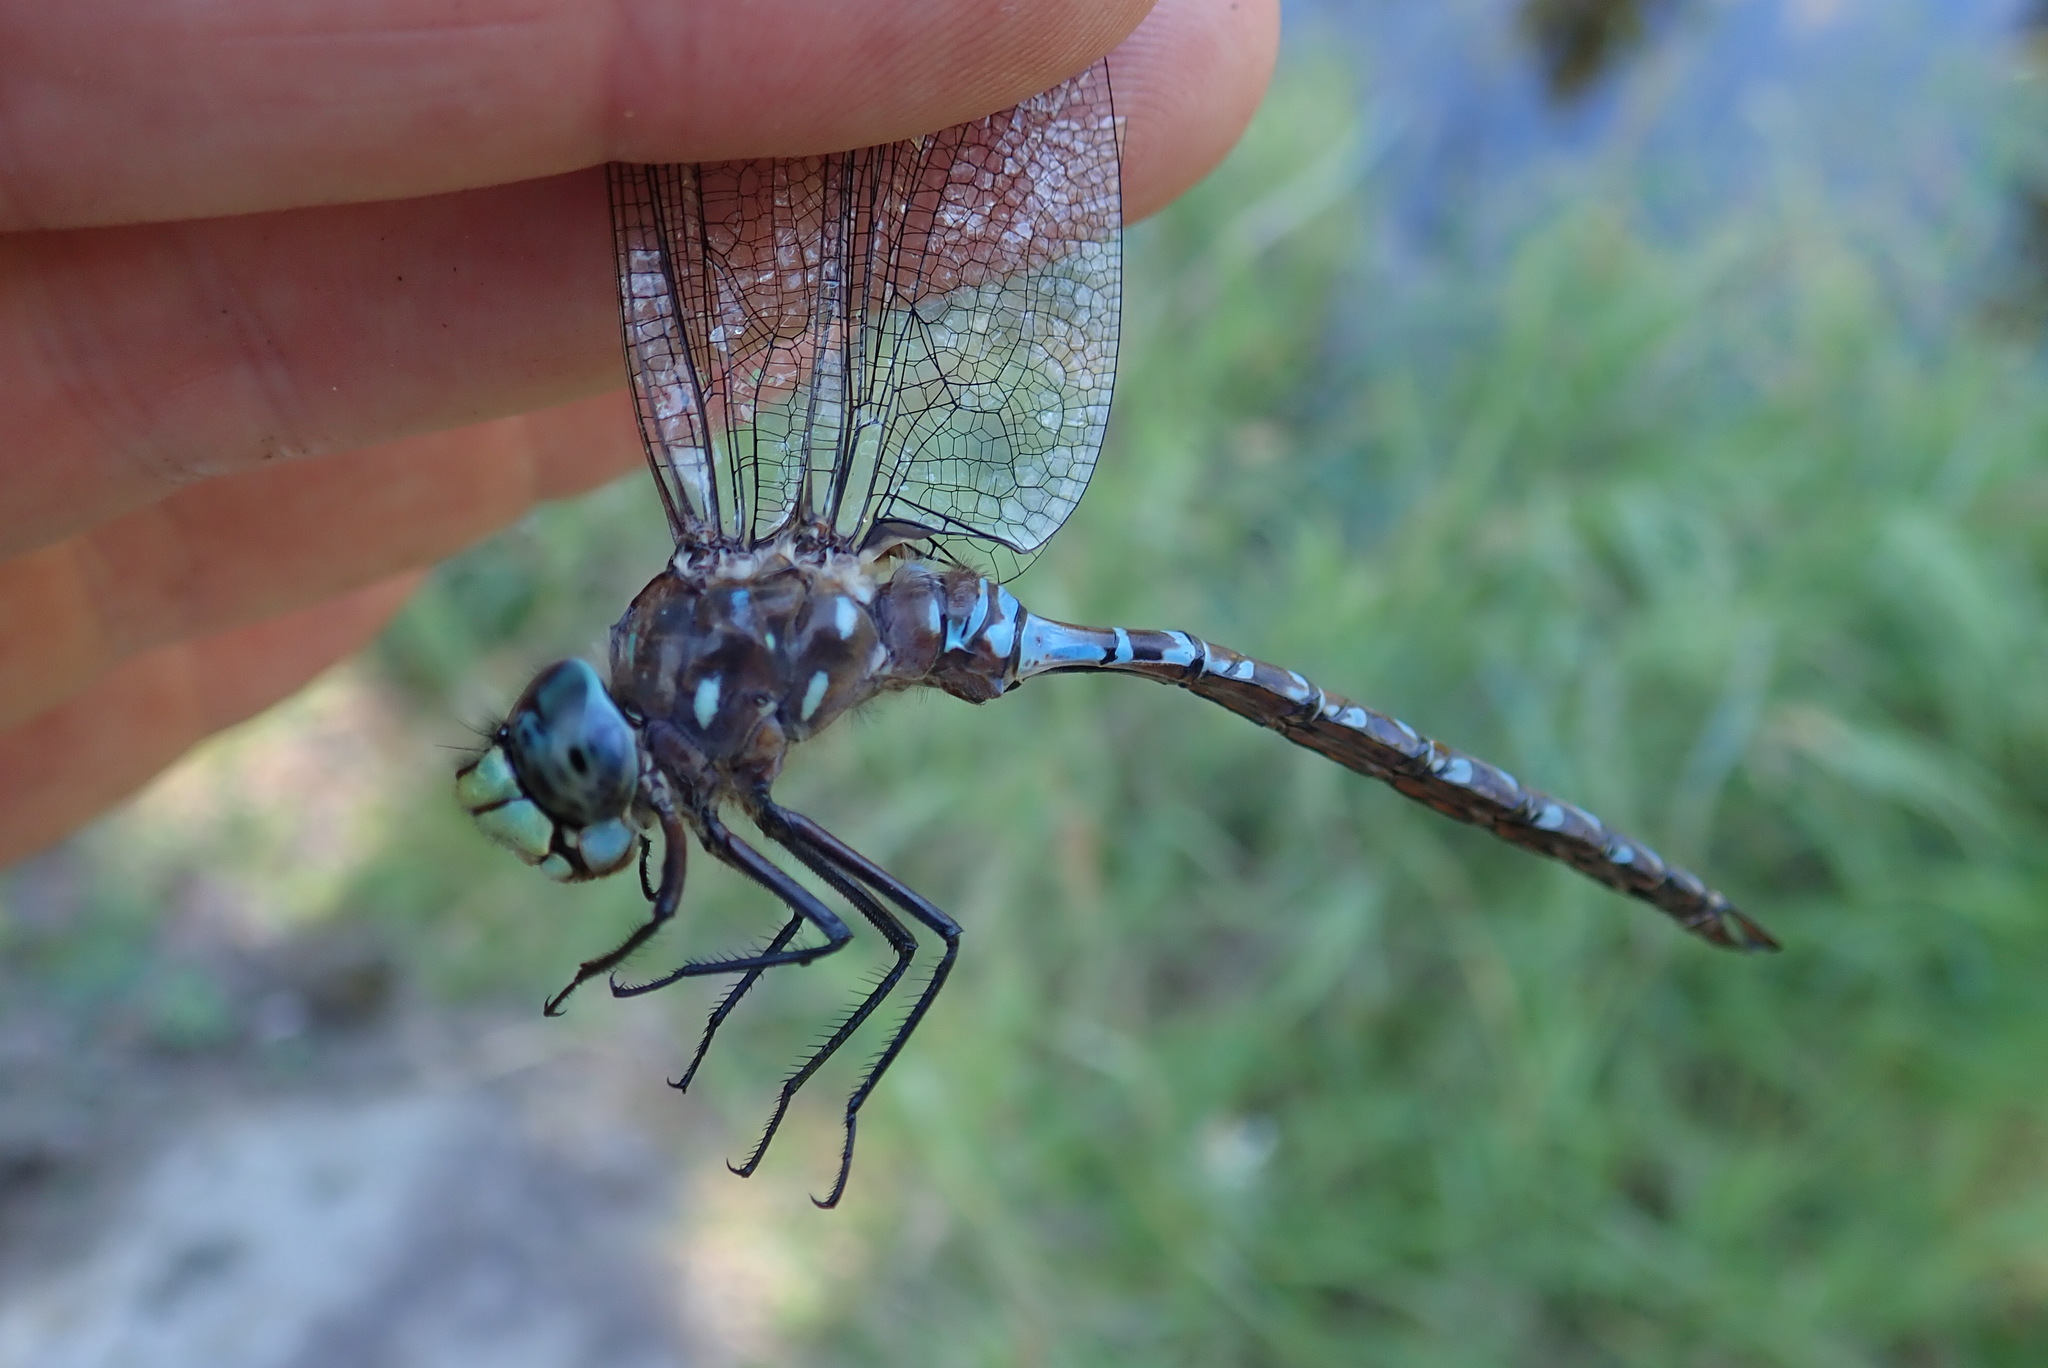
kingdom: Animalia
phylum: Arthropoda
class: Insecta
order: Odonata
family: Aeshnidae
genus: Aeshna
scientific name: Aeshna interrupta
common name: Variable darner
